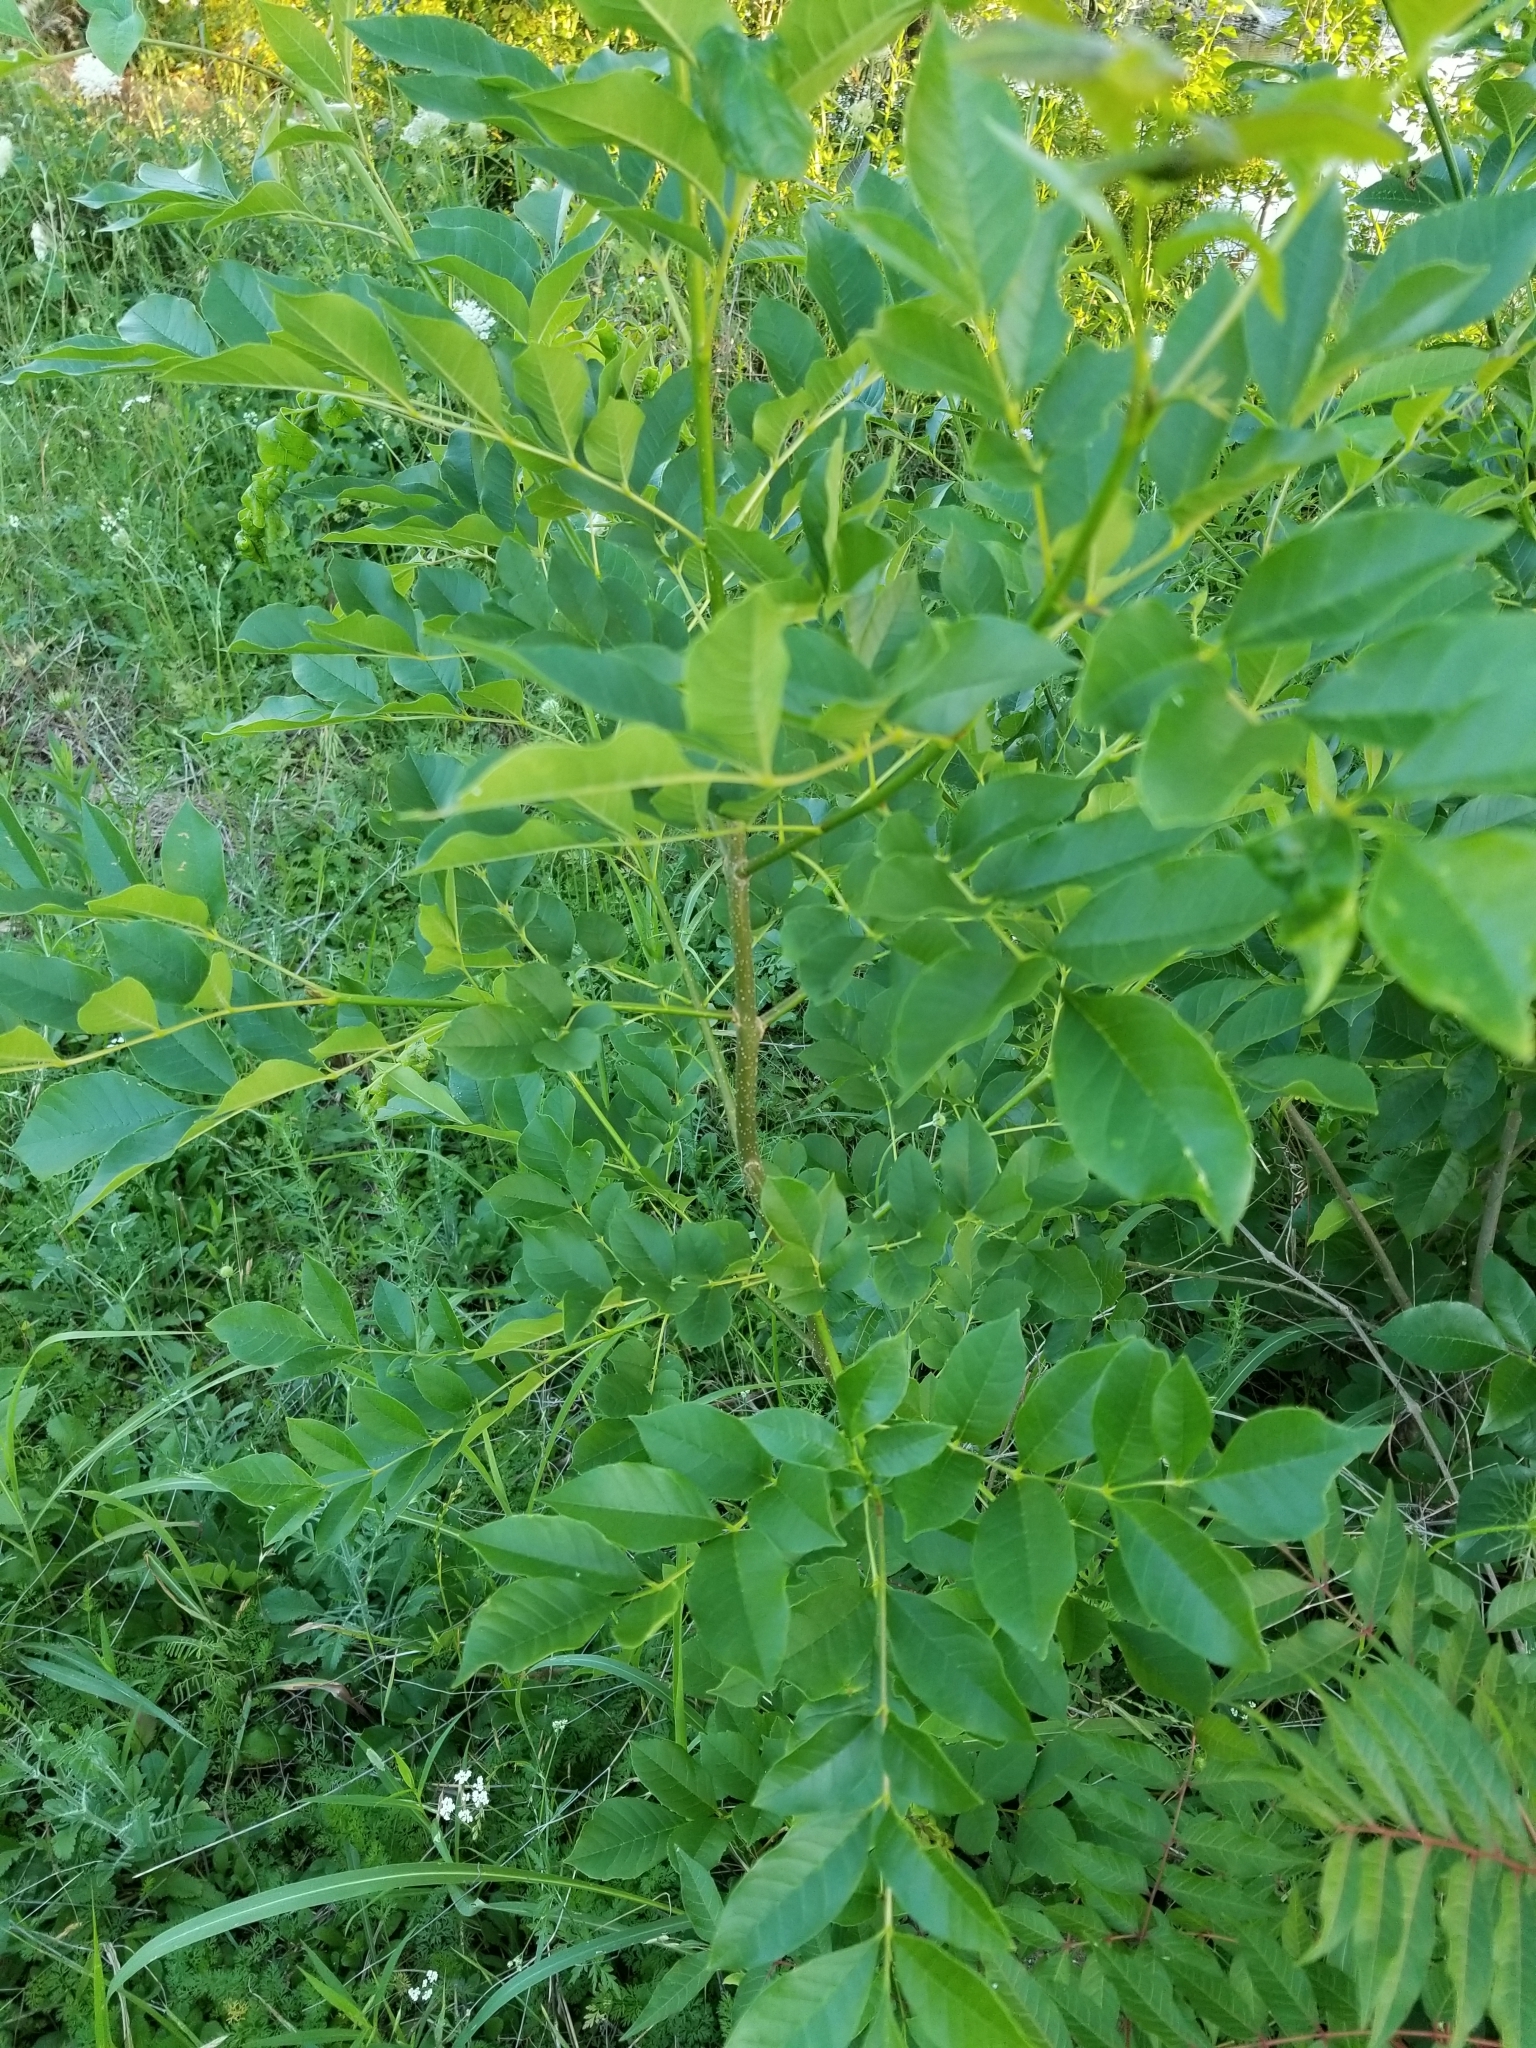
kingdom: Plantae
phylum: Tracheophyta
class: Magnoliopsida
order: Lamiales
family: Oleaceae
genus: Fraxinus
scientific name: Fraxinus pennsylvanica
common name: Green ash
